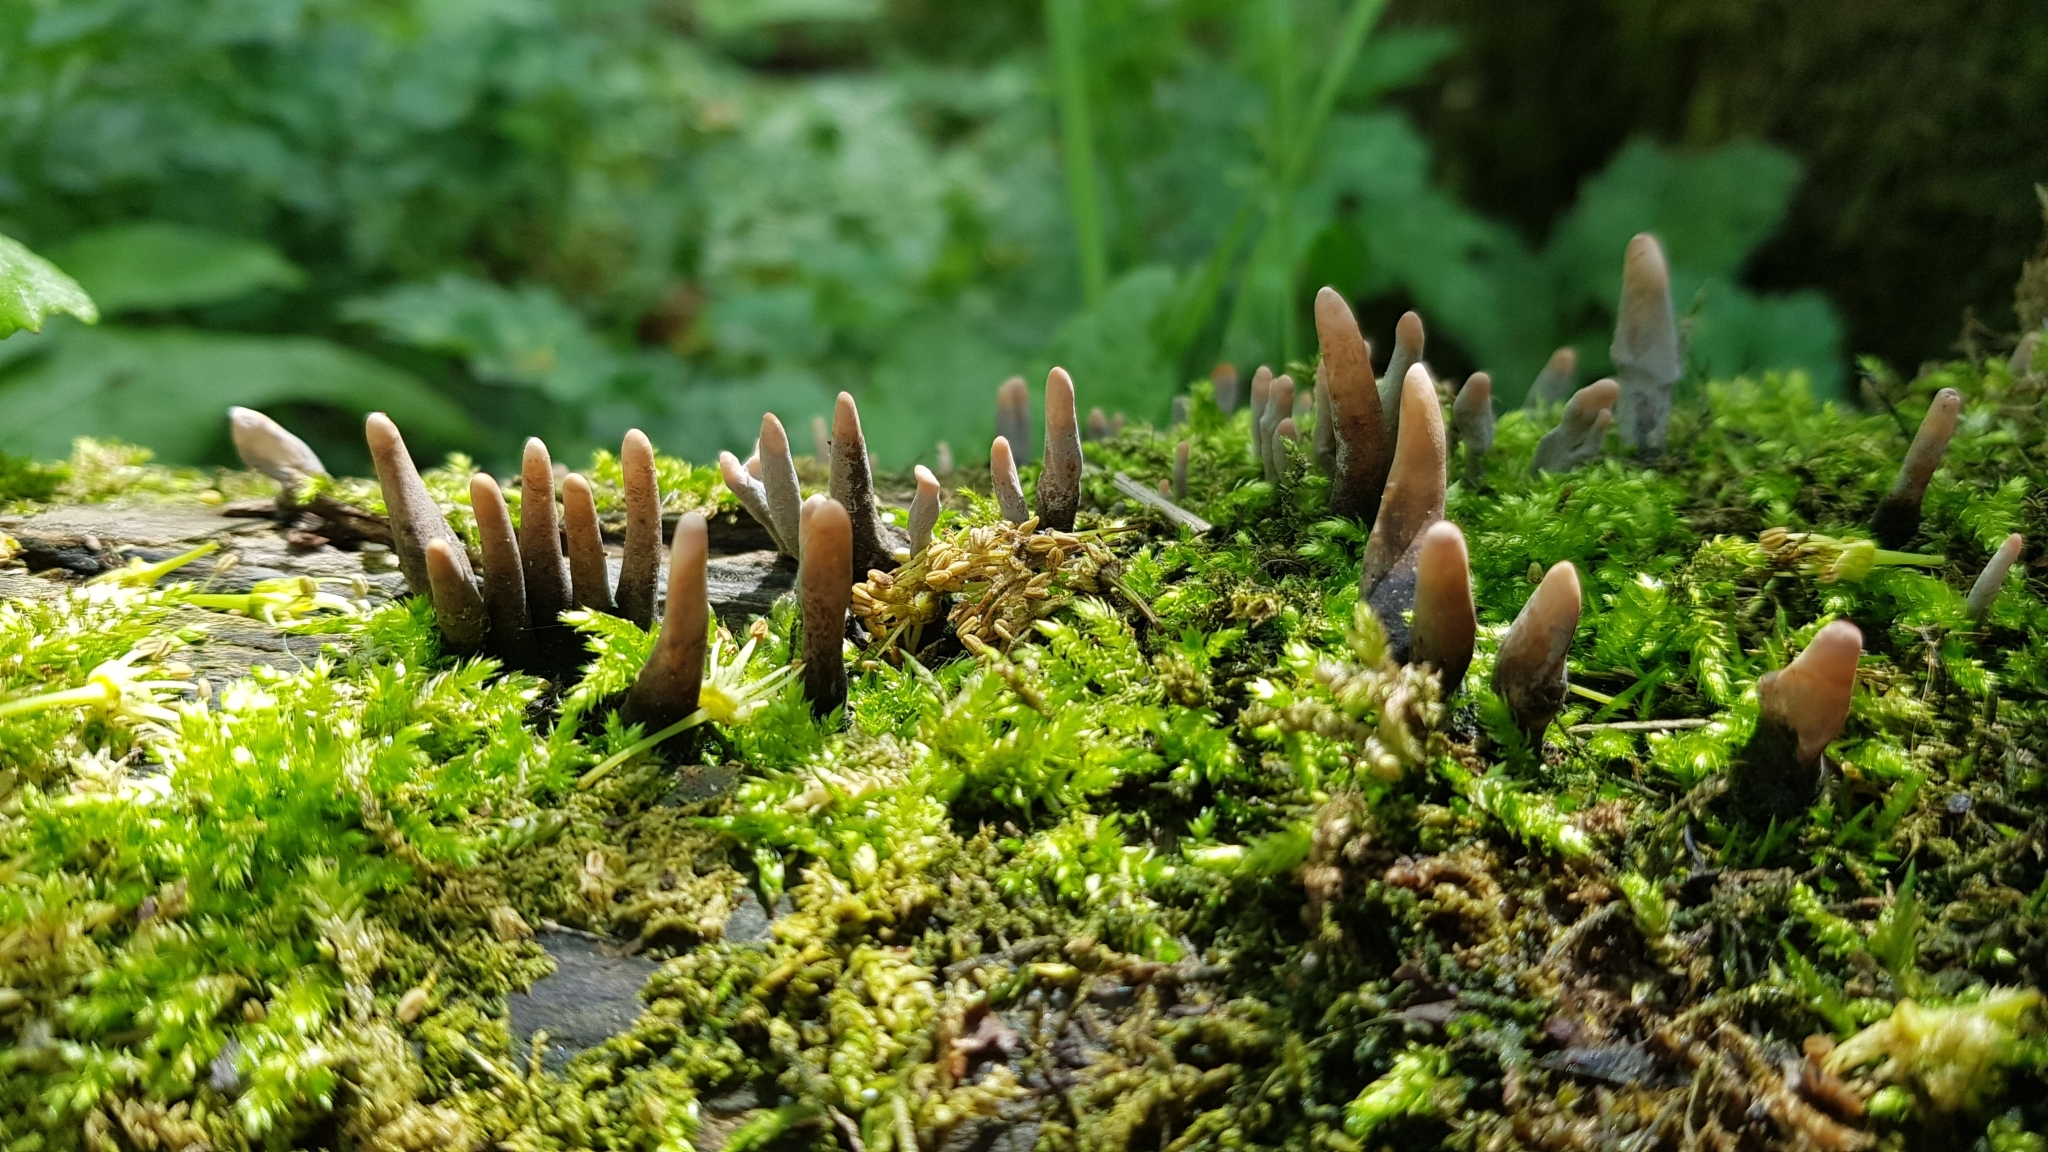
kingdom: Fungi
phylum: Ascomycota
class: Sordariomycetes
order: Xylariales
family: Xylariaceae
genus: Xylaria
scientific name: Xylaria hypoxylon
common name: Candle-snuff fungus
